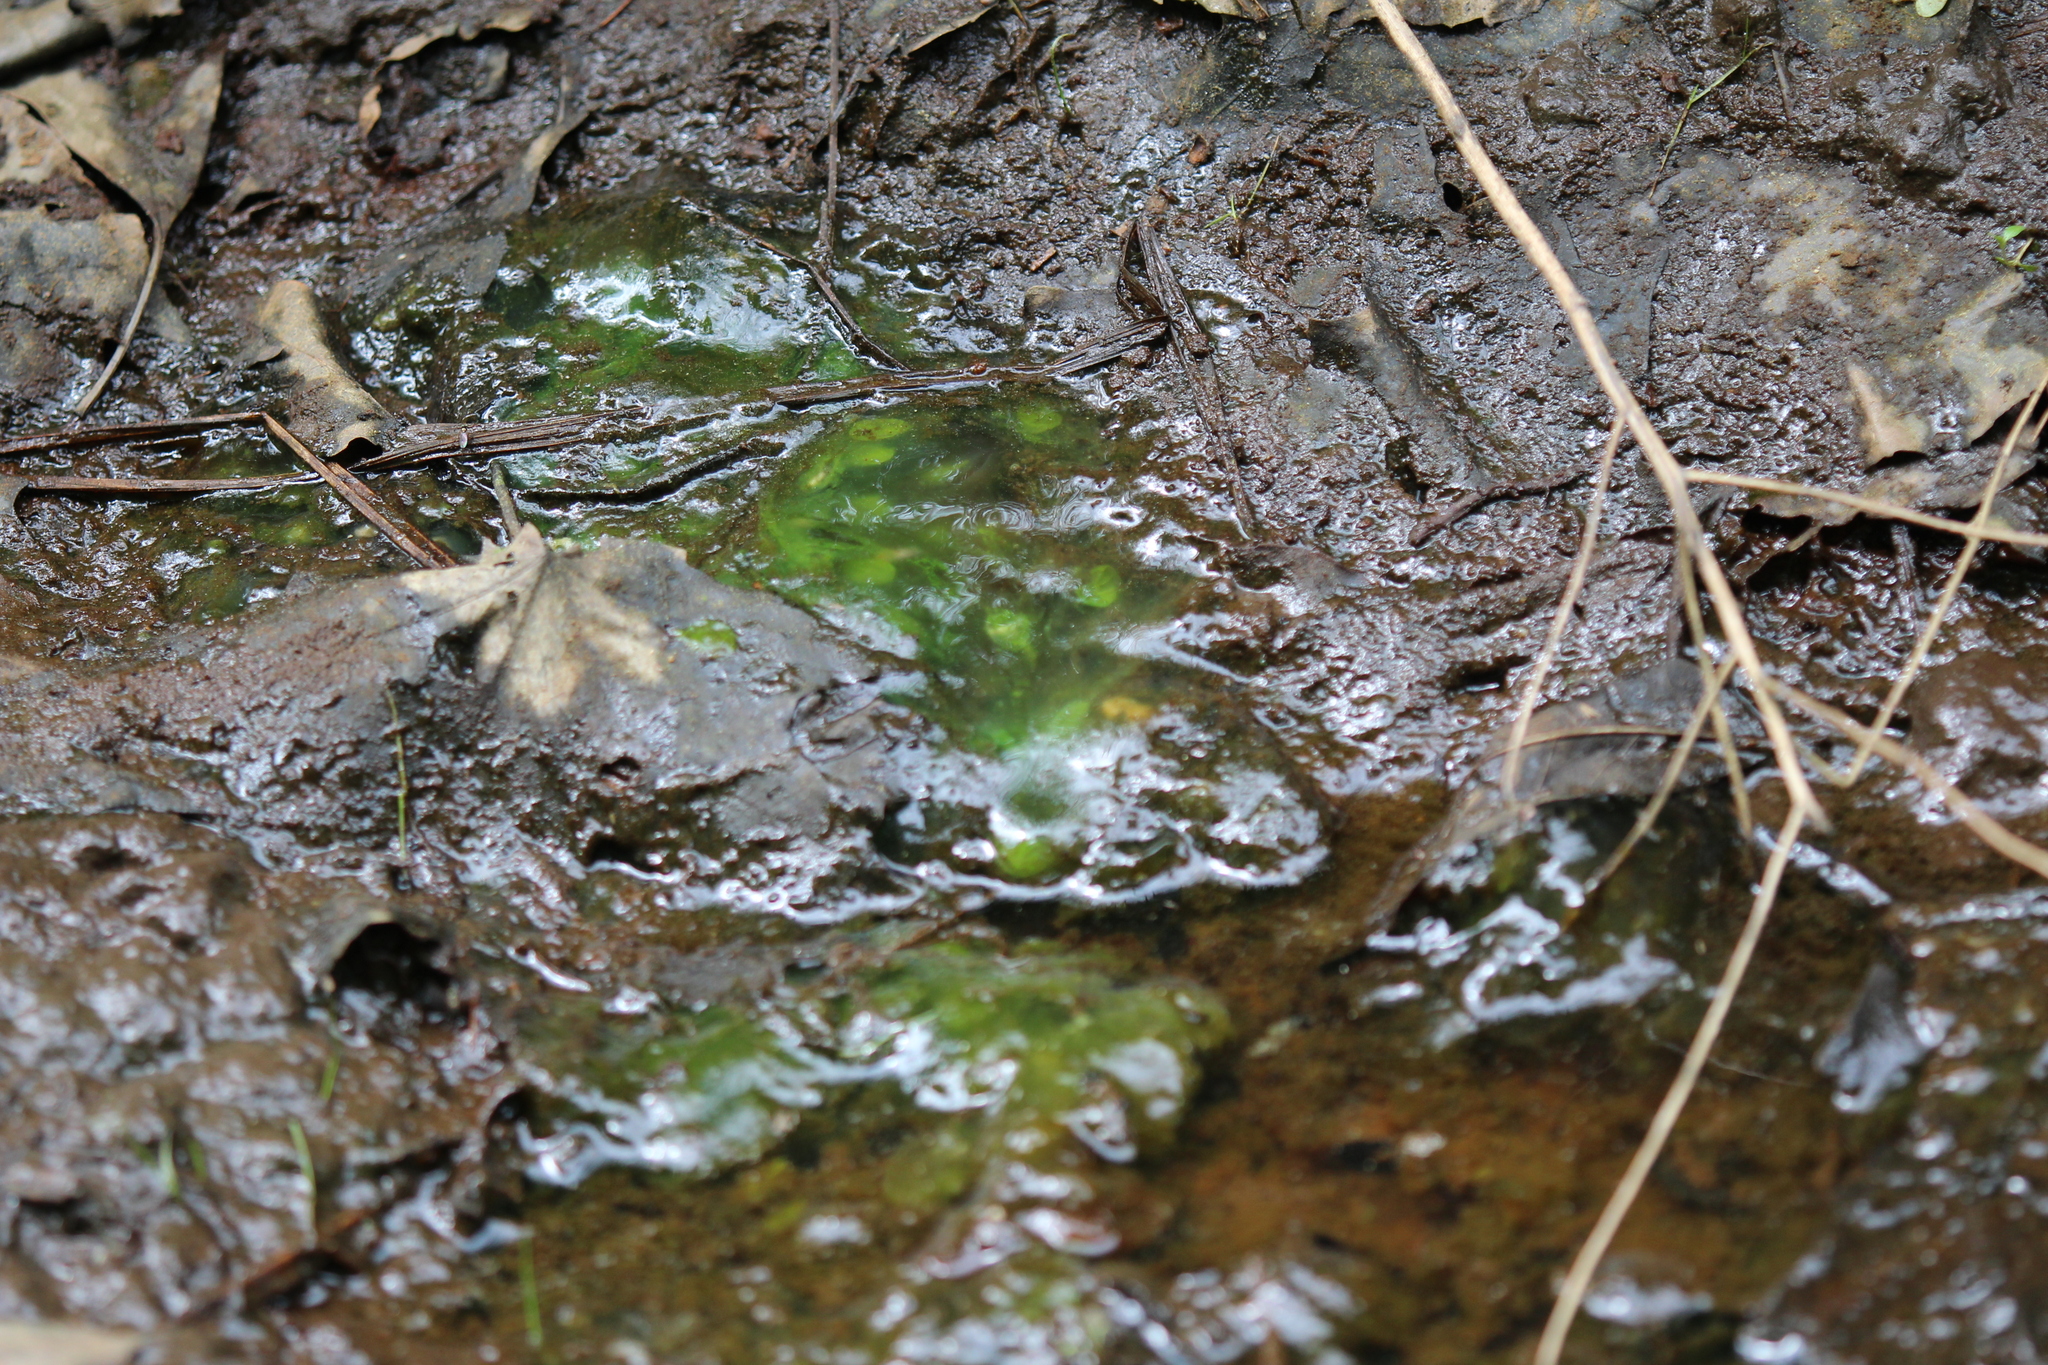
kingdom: Animalia
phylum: Chordata
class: Amphibia
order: Caudata
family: Ambystomatidae
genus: Ambystoma
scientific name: Ambystoma maculatum
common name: Spotted salamander
